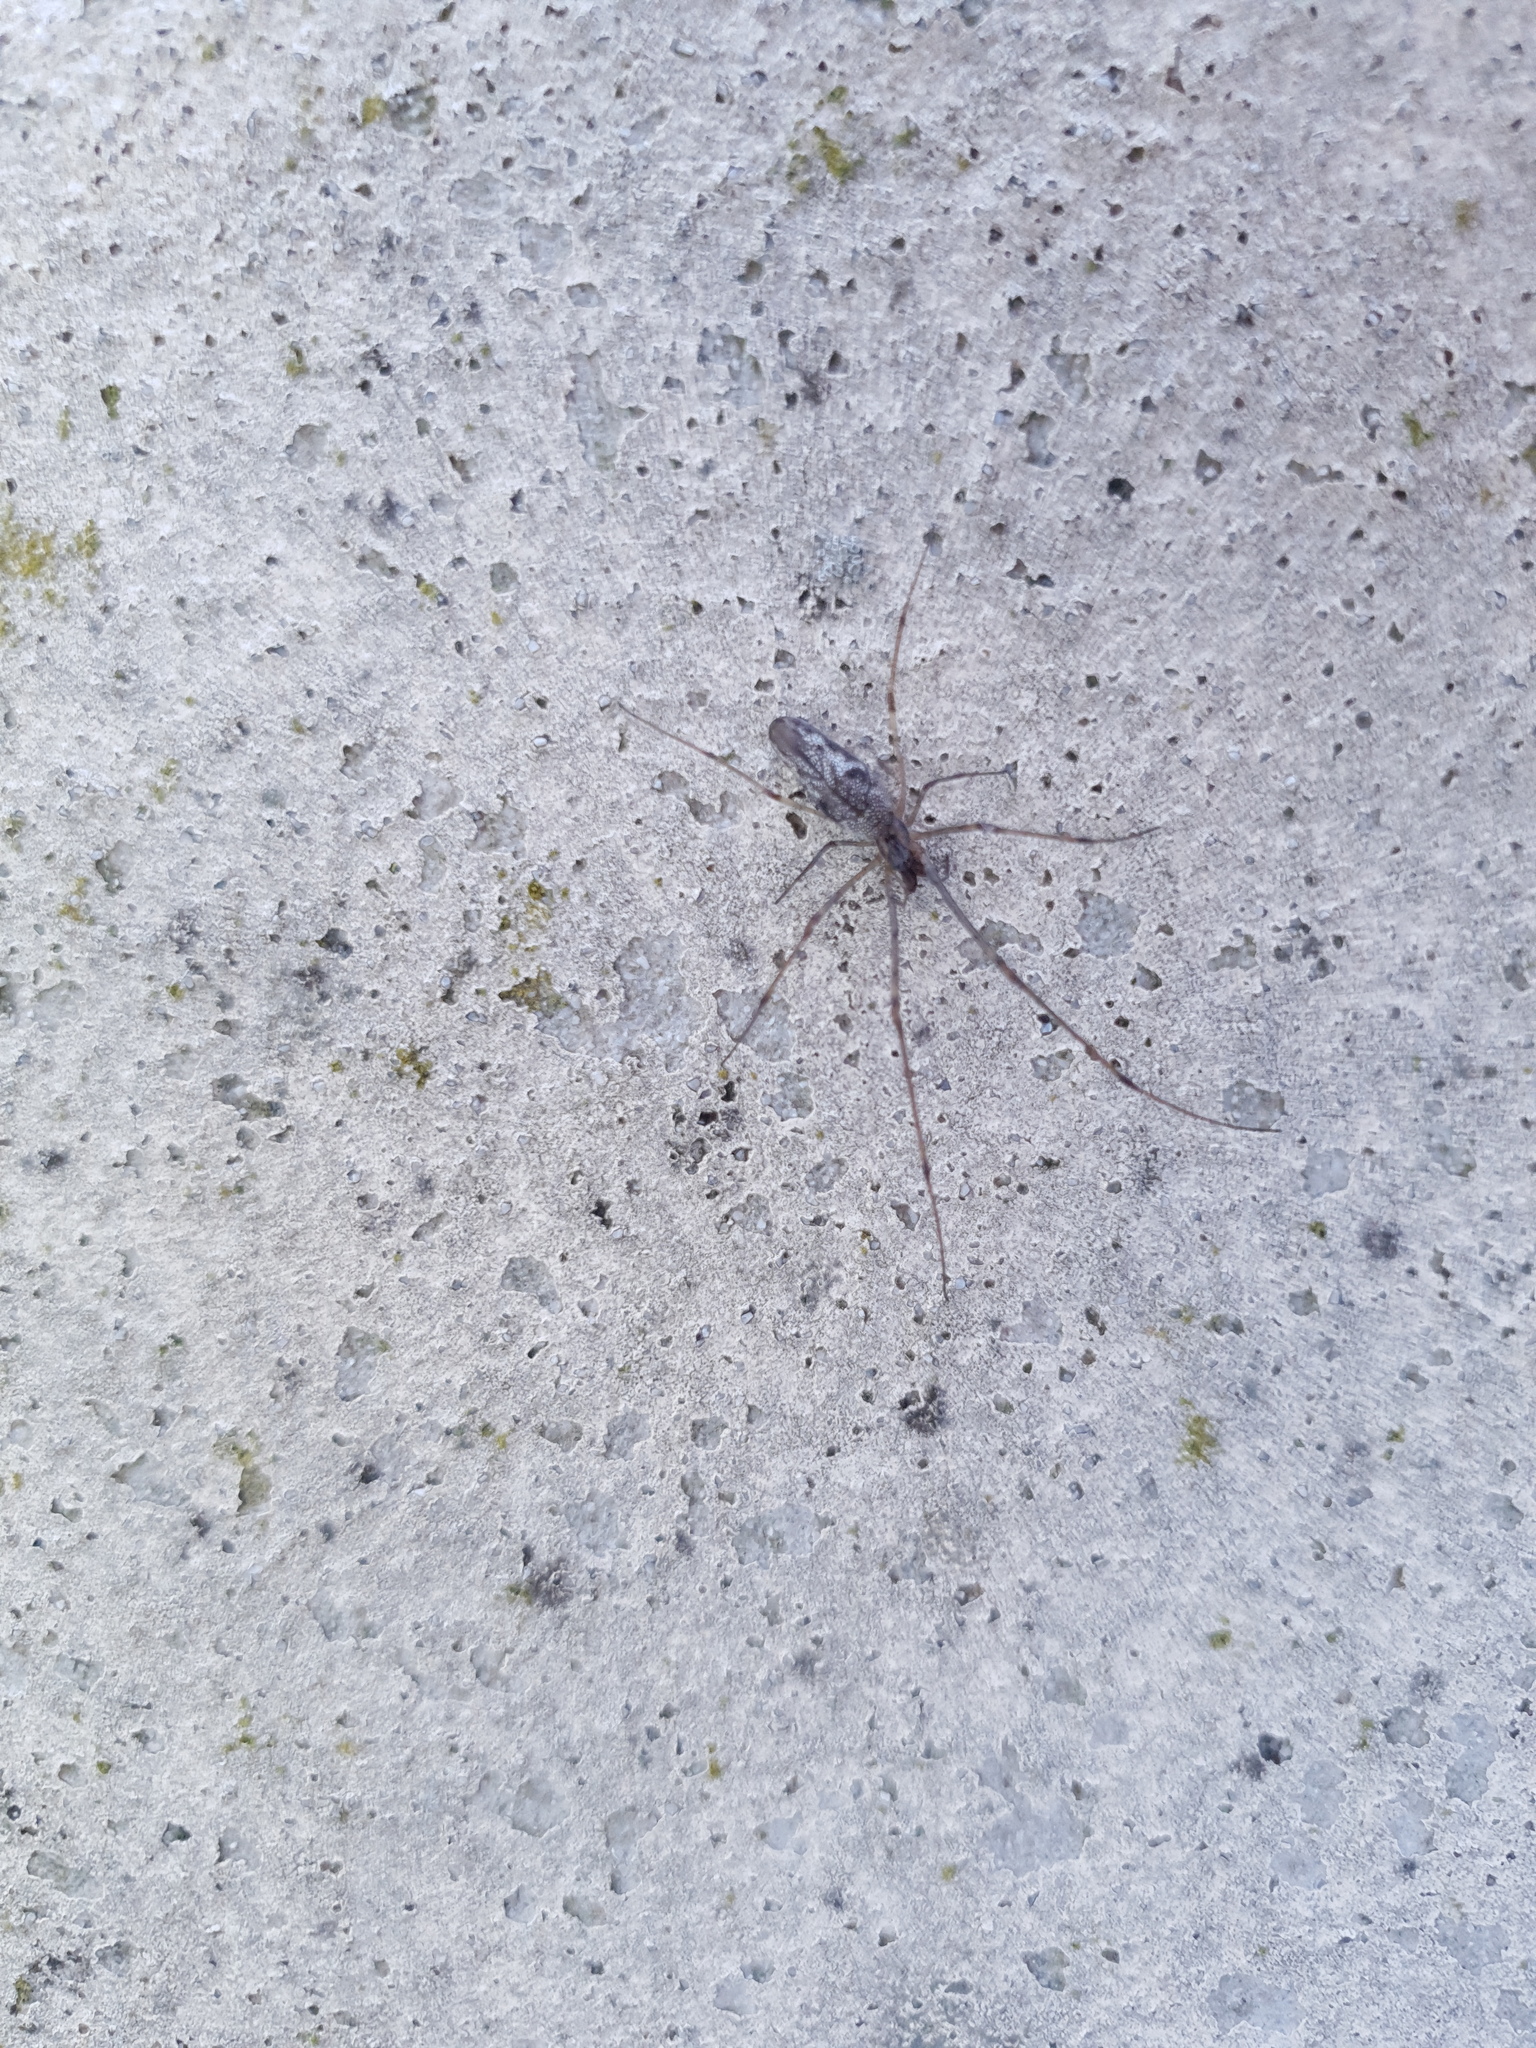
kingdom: Animalia
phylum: Arthropoda
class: Arachnida
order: Araneae
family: Tetragnathidae
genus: Tetragnatha
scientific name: Tetragnatha
